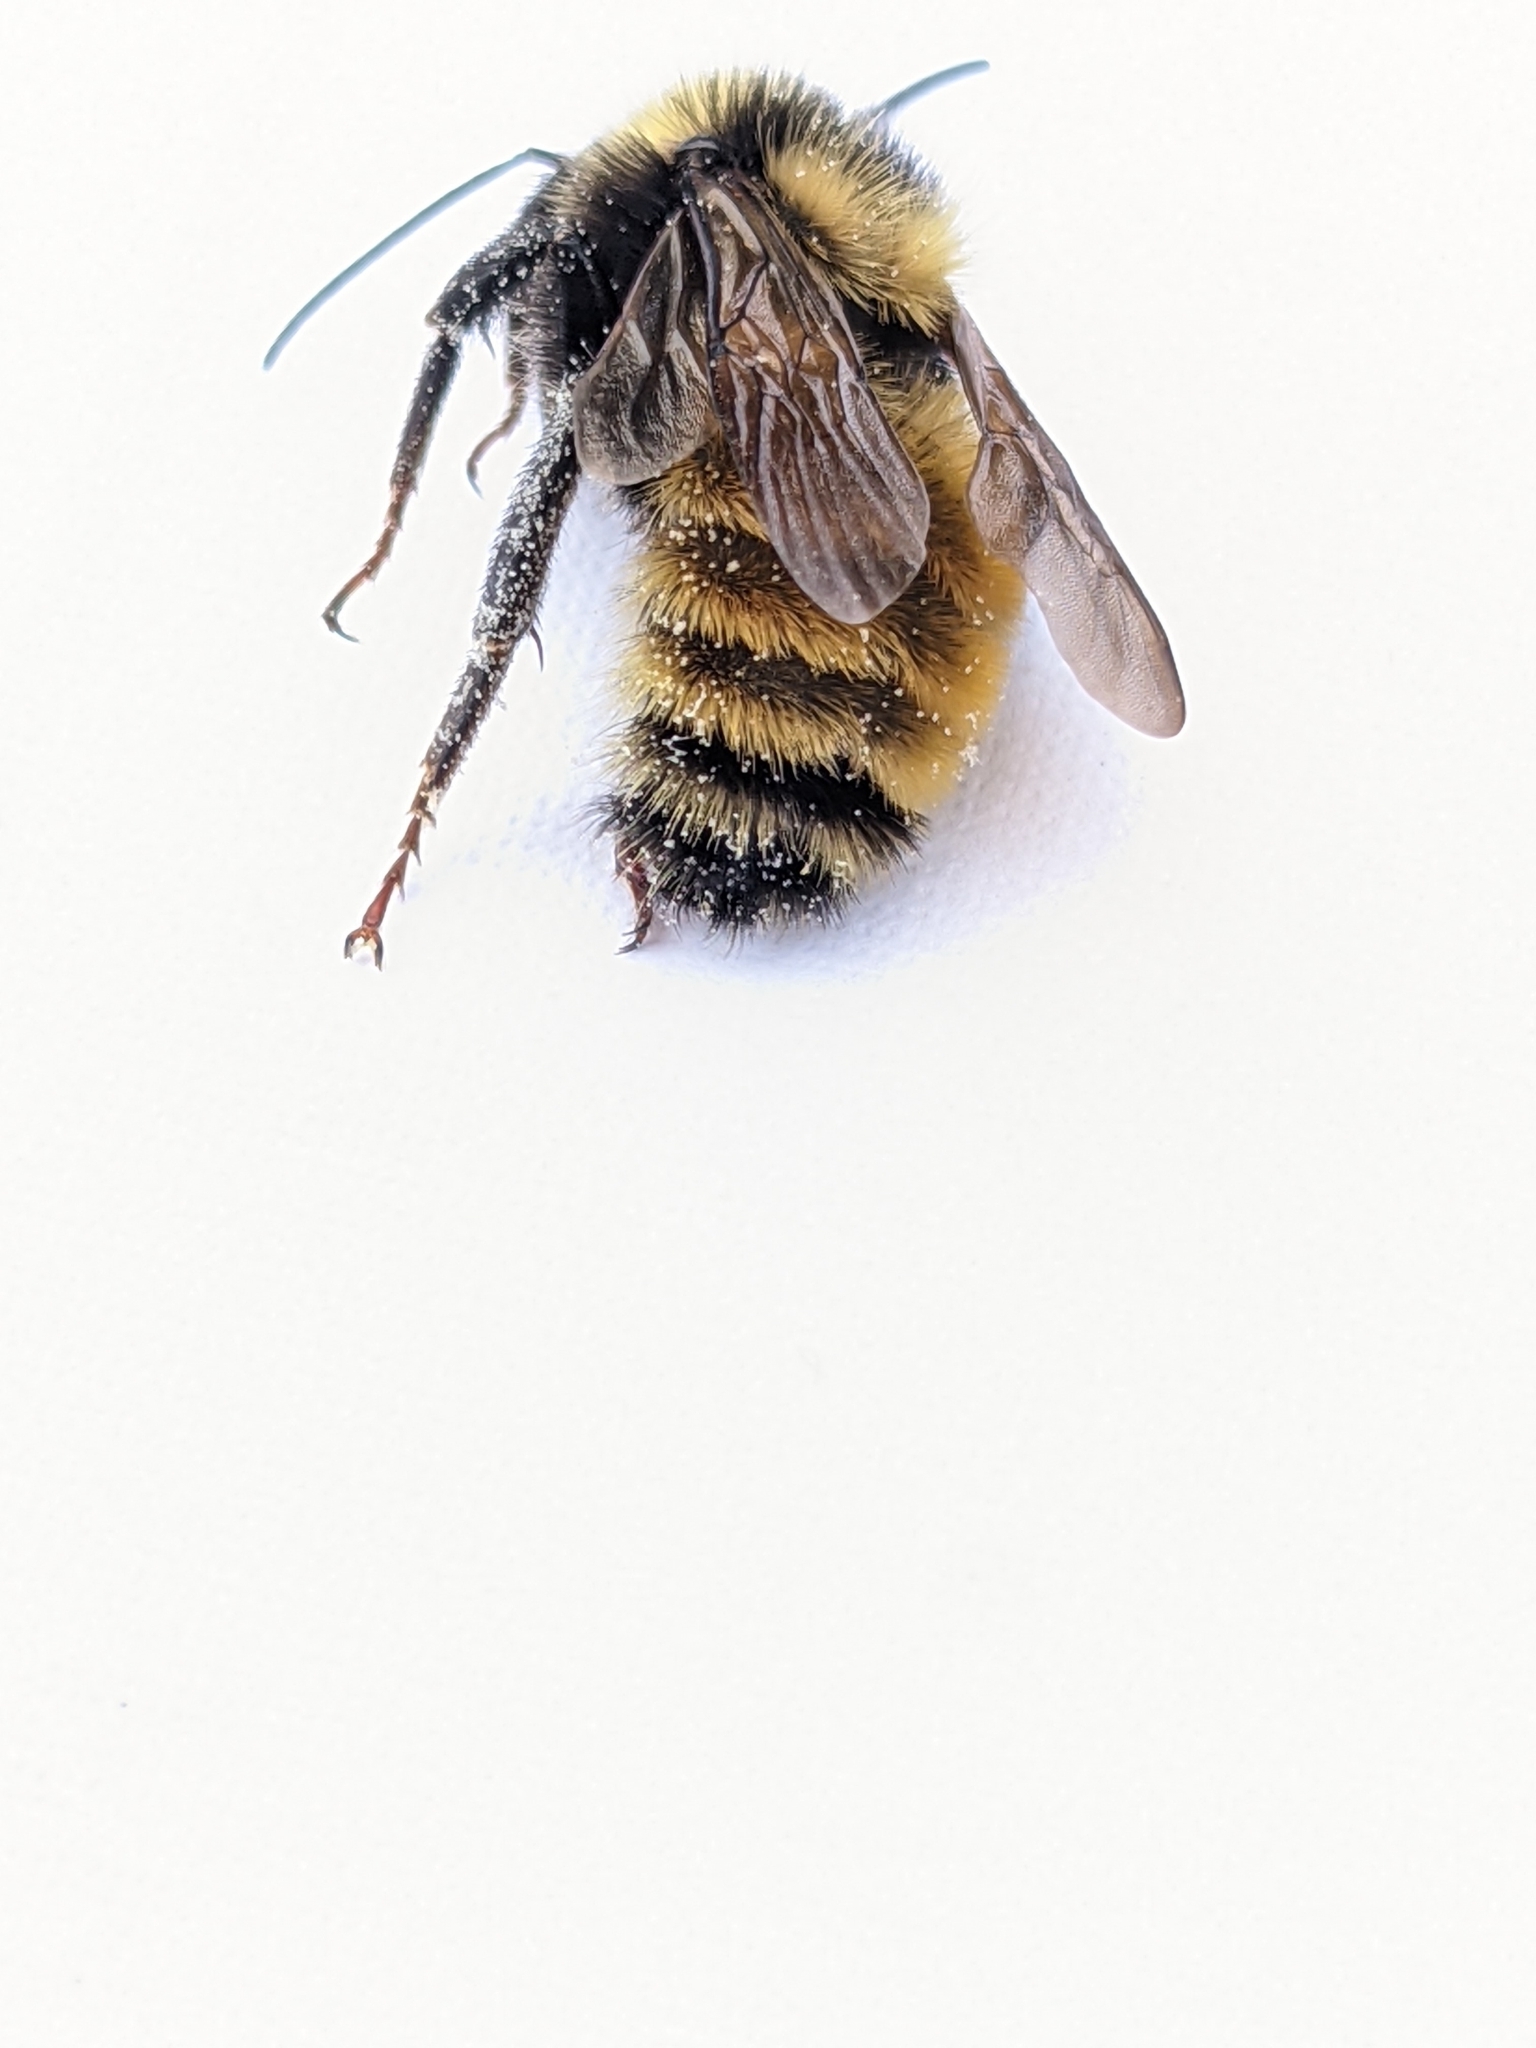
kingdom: Animalia
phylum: Arthropoda
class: Insecta
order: Hymenoptera
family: Apidae
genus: Bombus
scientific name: Bombus borealis
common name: Northern amber bumble bee
